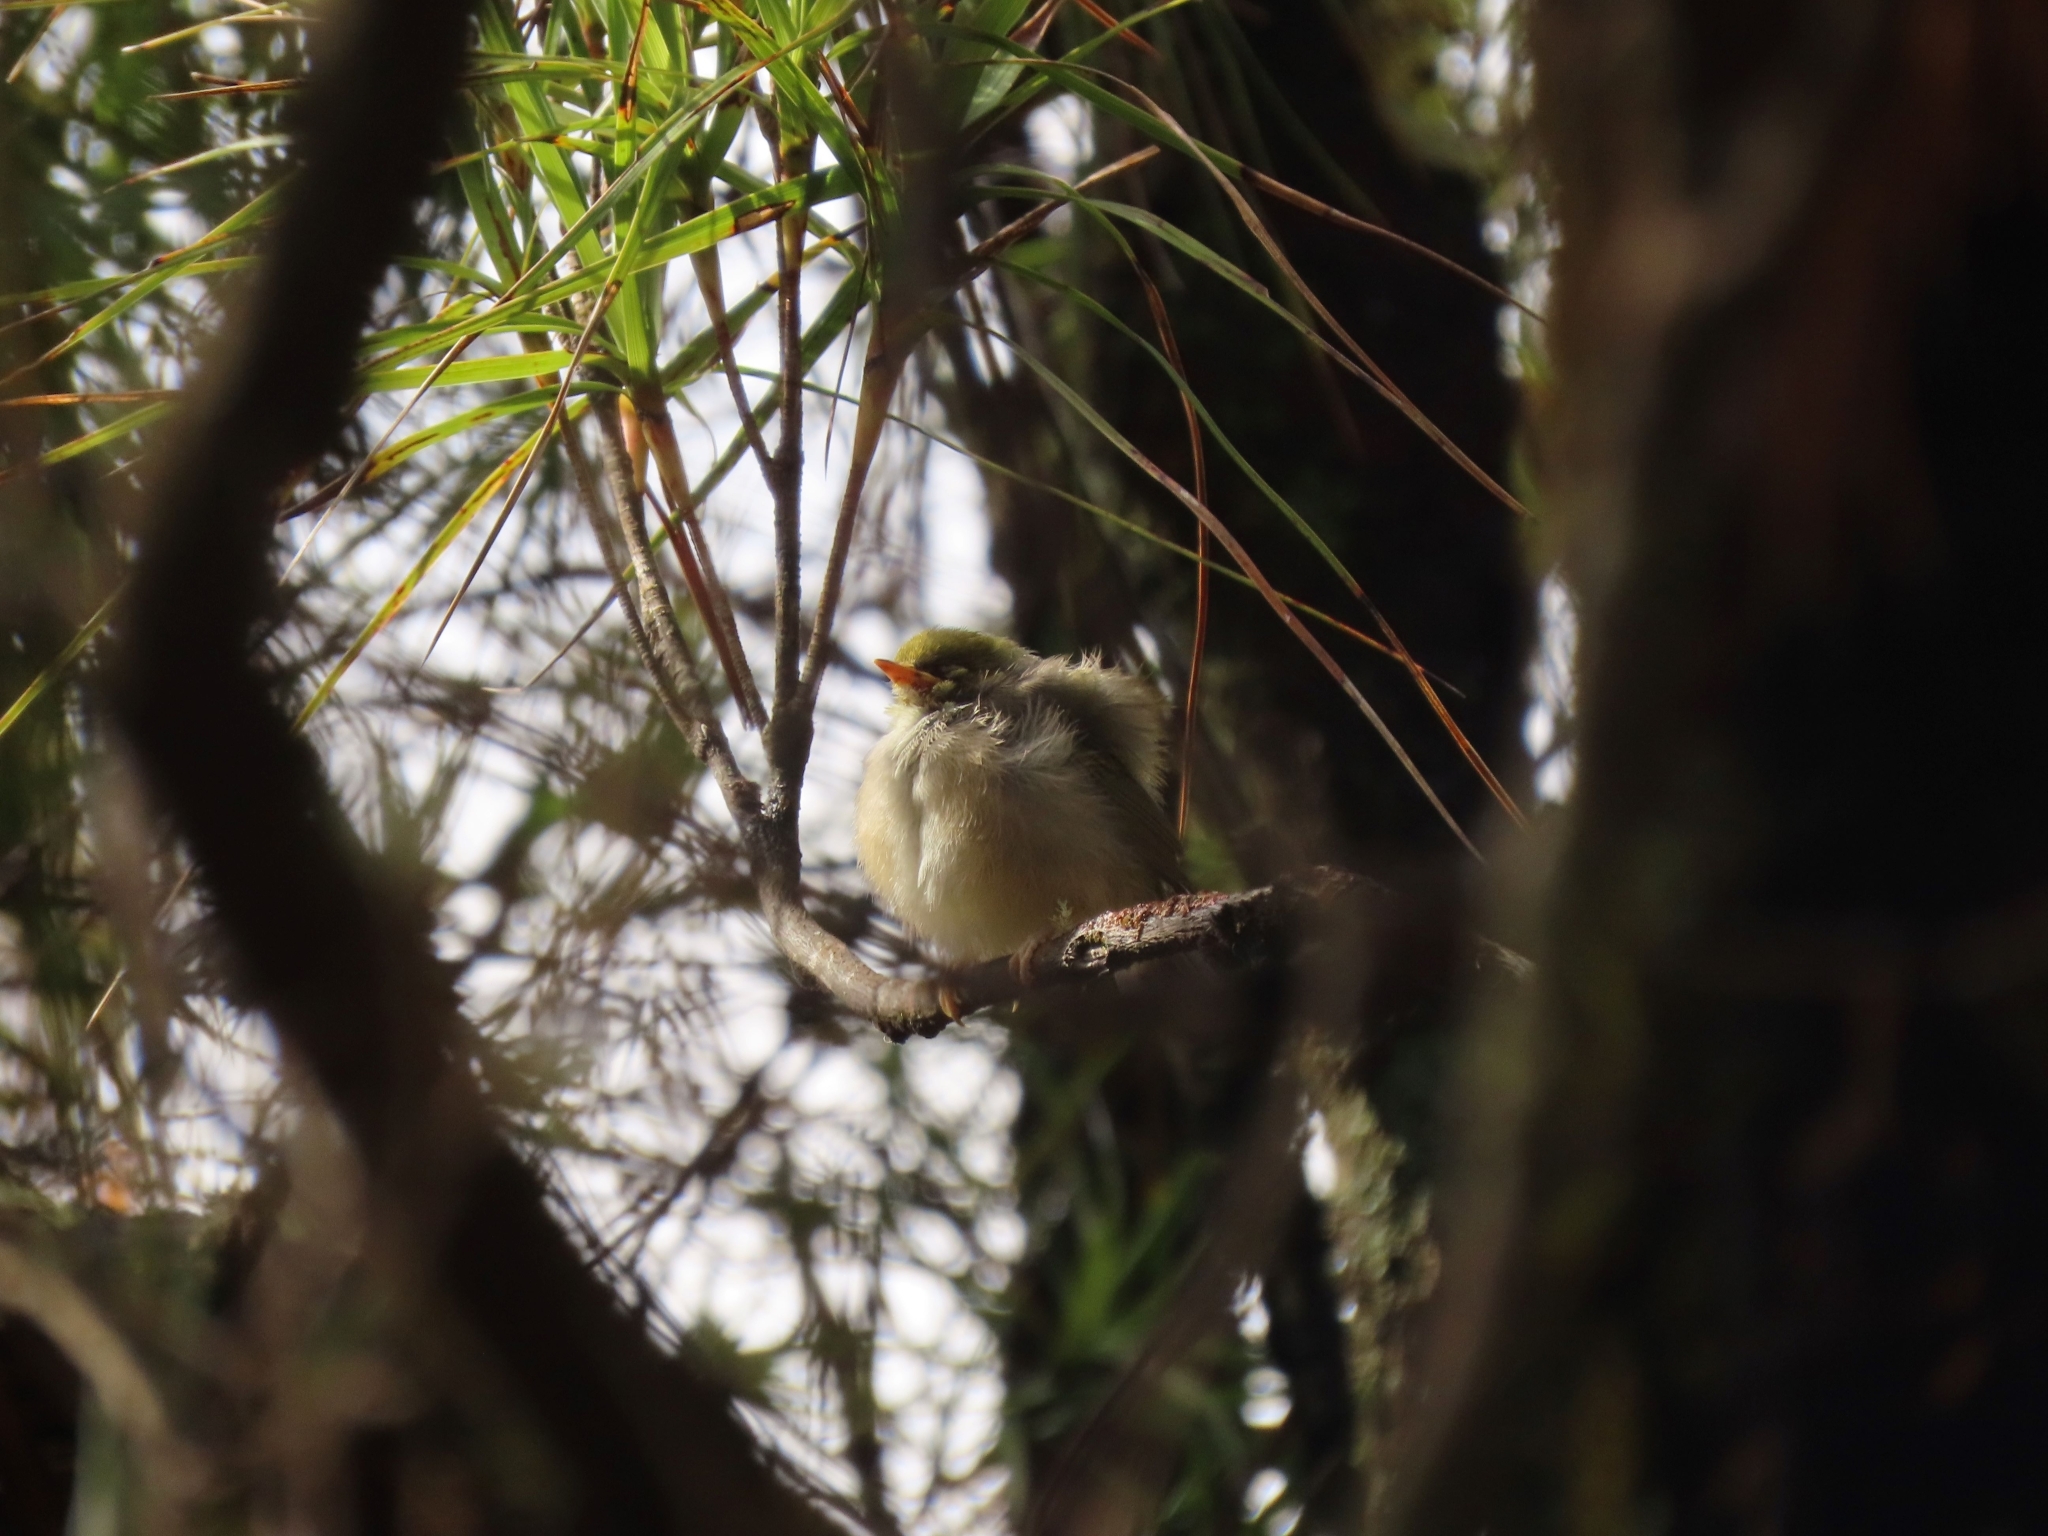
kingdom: Animalia
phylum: Chordata
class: Aves
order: Passeriformes
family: Zosteropidae
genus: Zosterops
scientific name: Zosterops lateralis
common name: Silvereye
